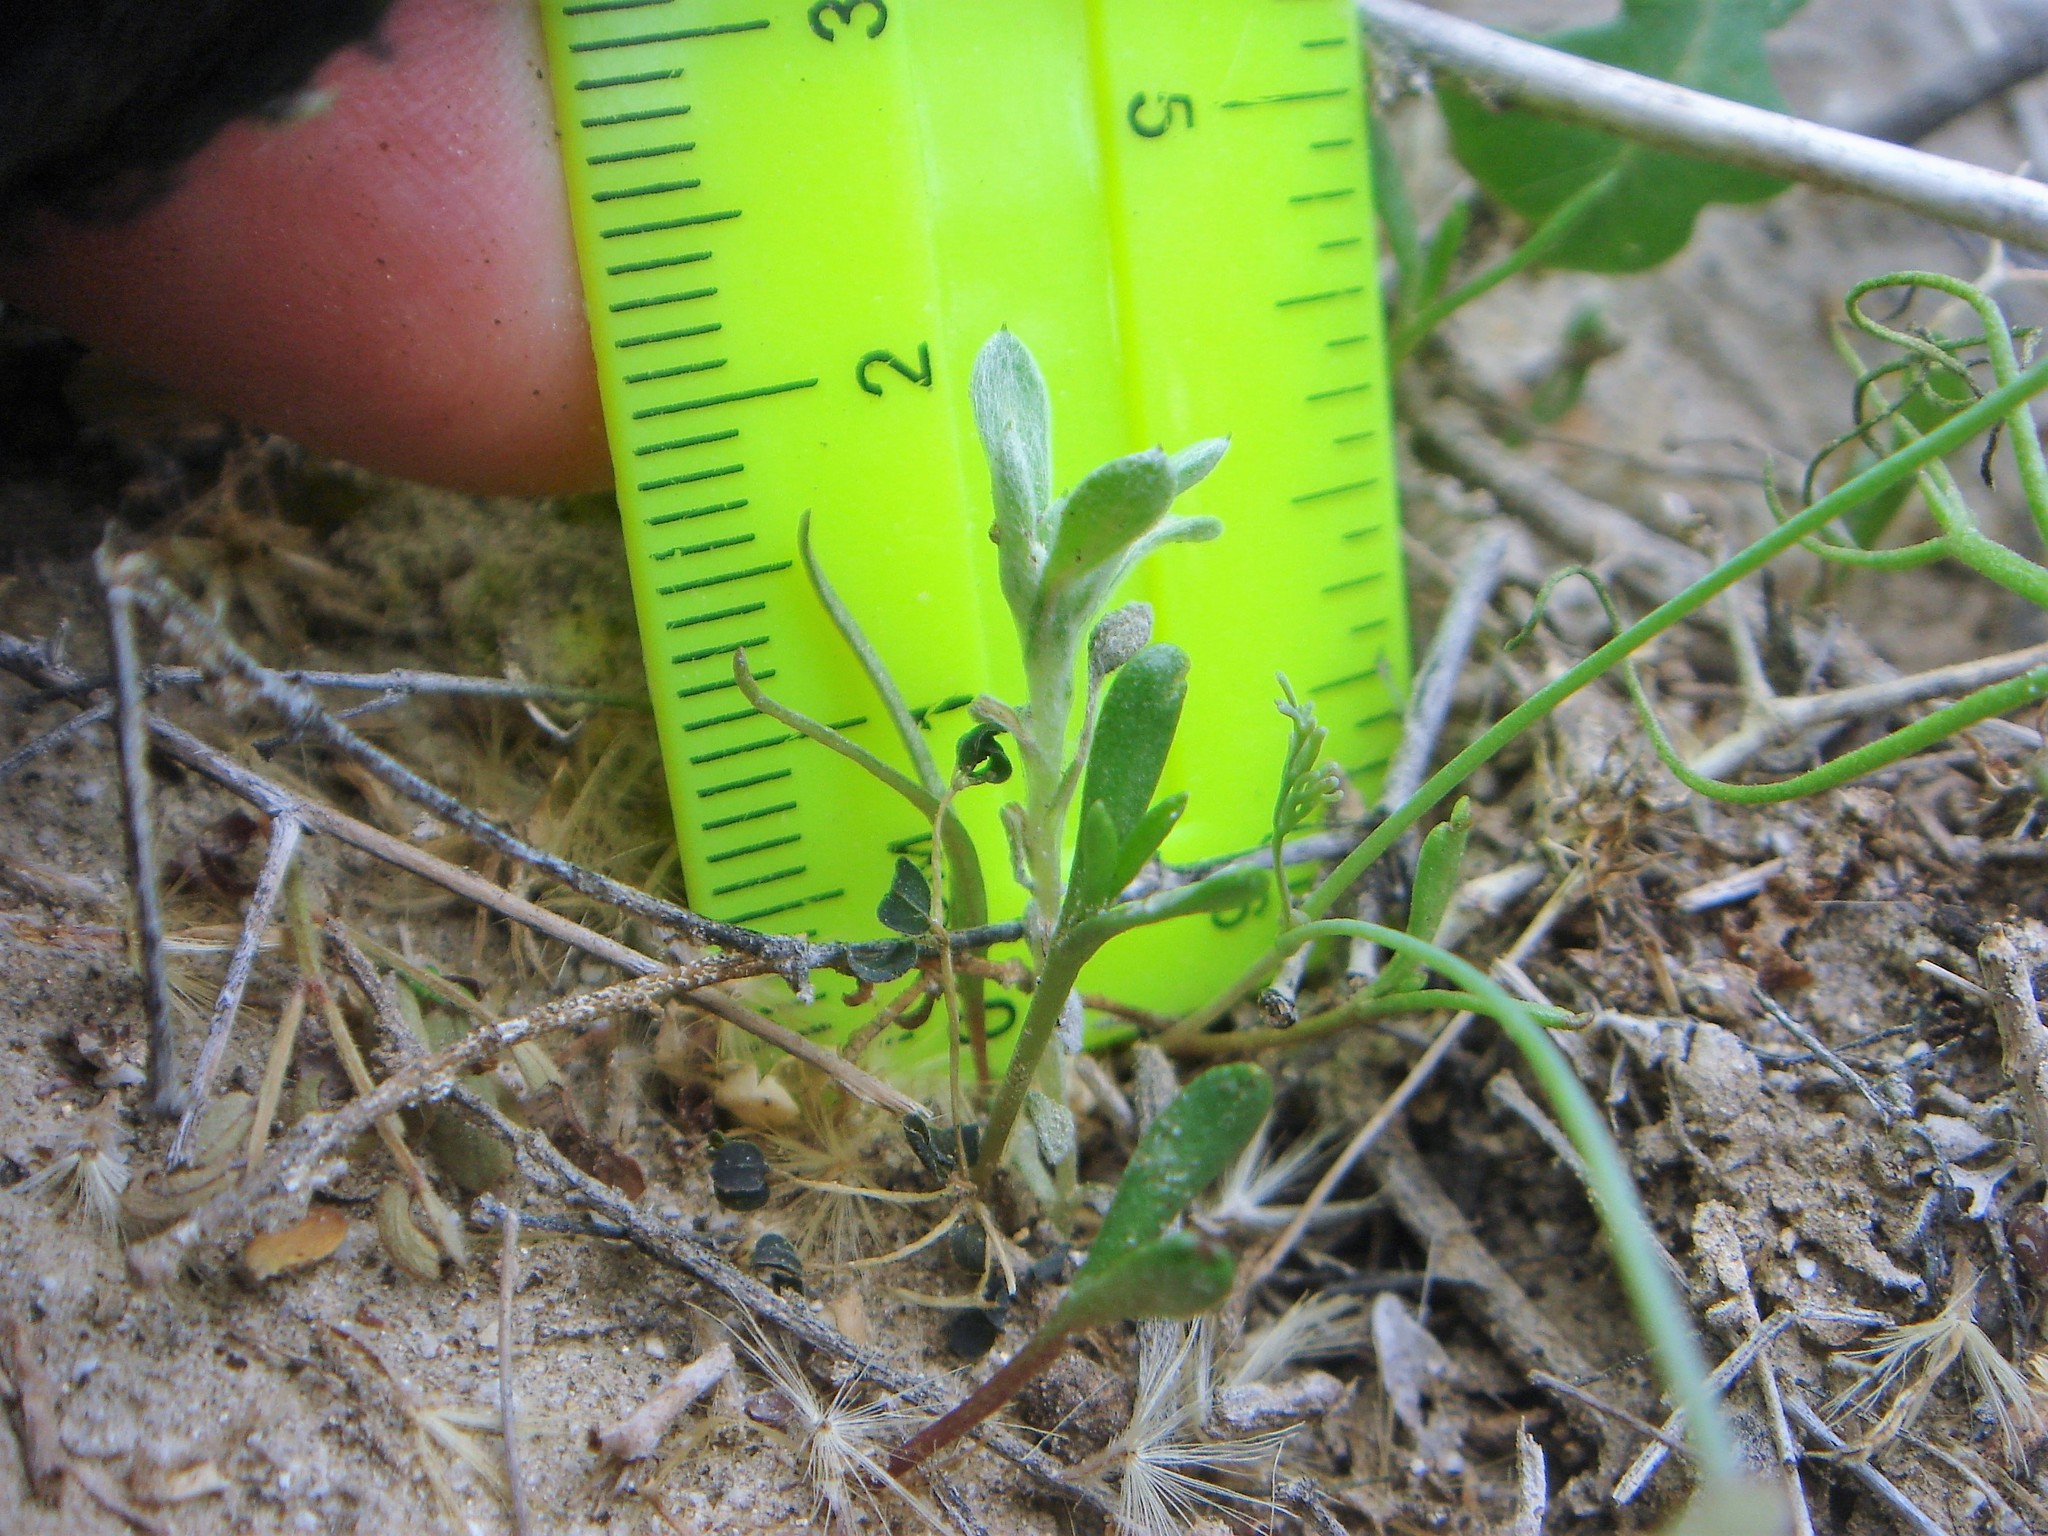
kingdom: Plantae
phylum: Tracheophyta
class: Magnoliopsida
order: Asterales
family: Asteraceae
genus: Logfia
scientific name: Logfia californica
